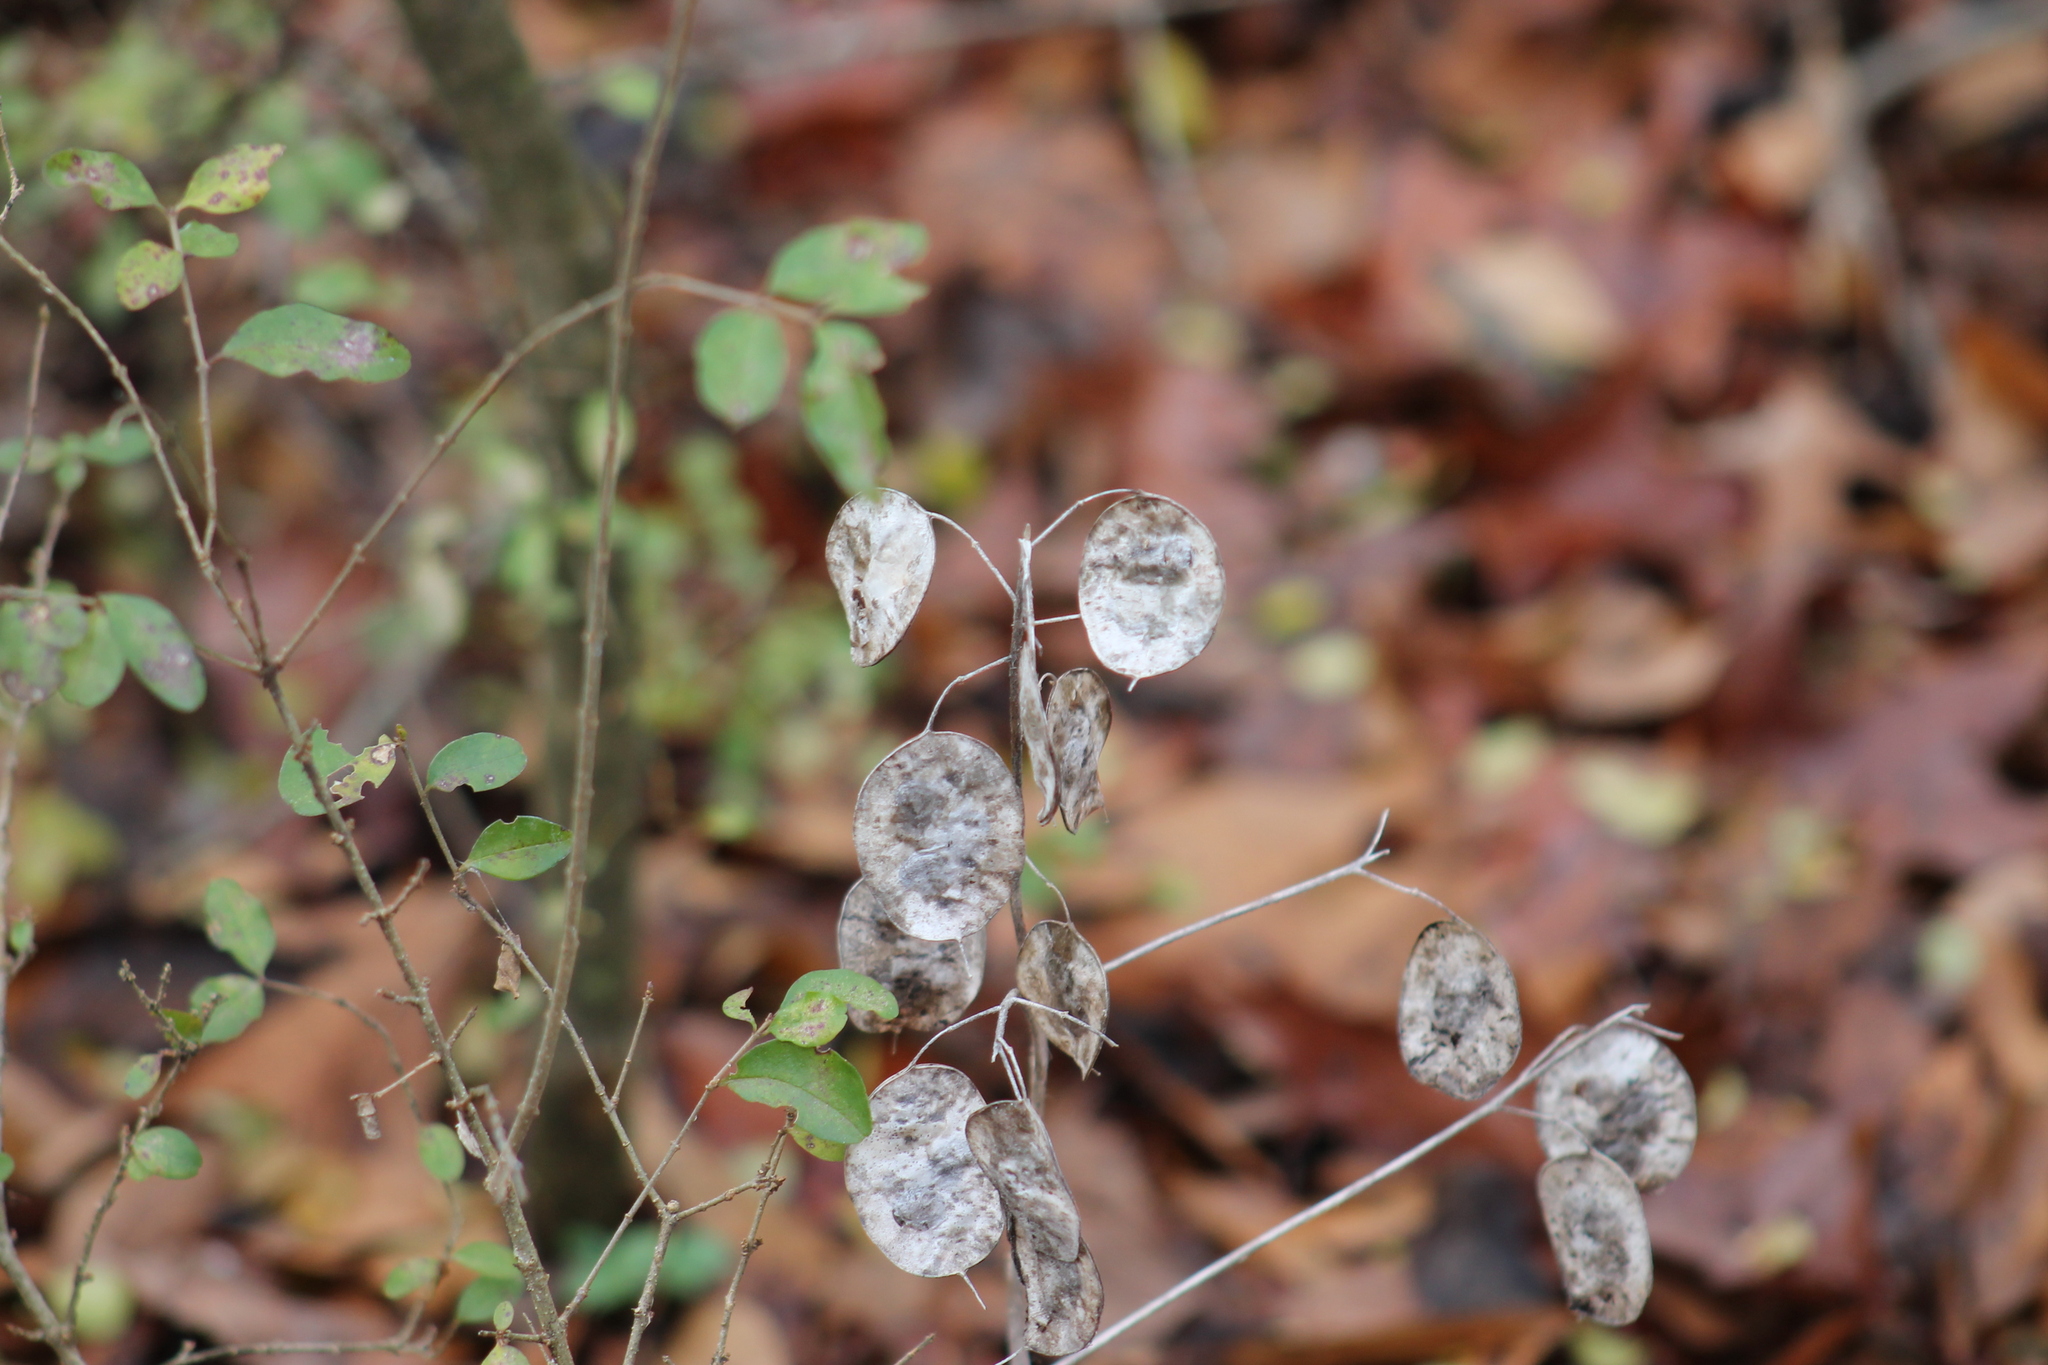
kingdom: Plantae
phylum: Tracheophyta
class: Magnoliopsida
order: Brassicales
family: Brassicaceae
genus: Lunaria
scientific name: Lunaria annua
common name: Honesty
